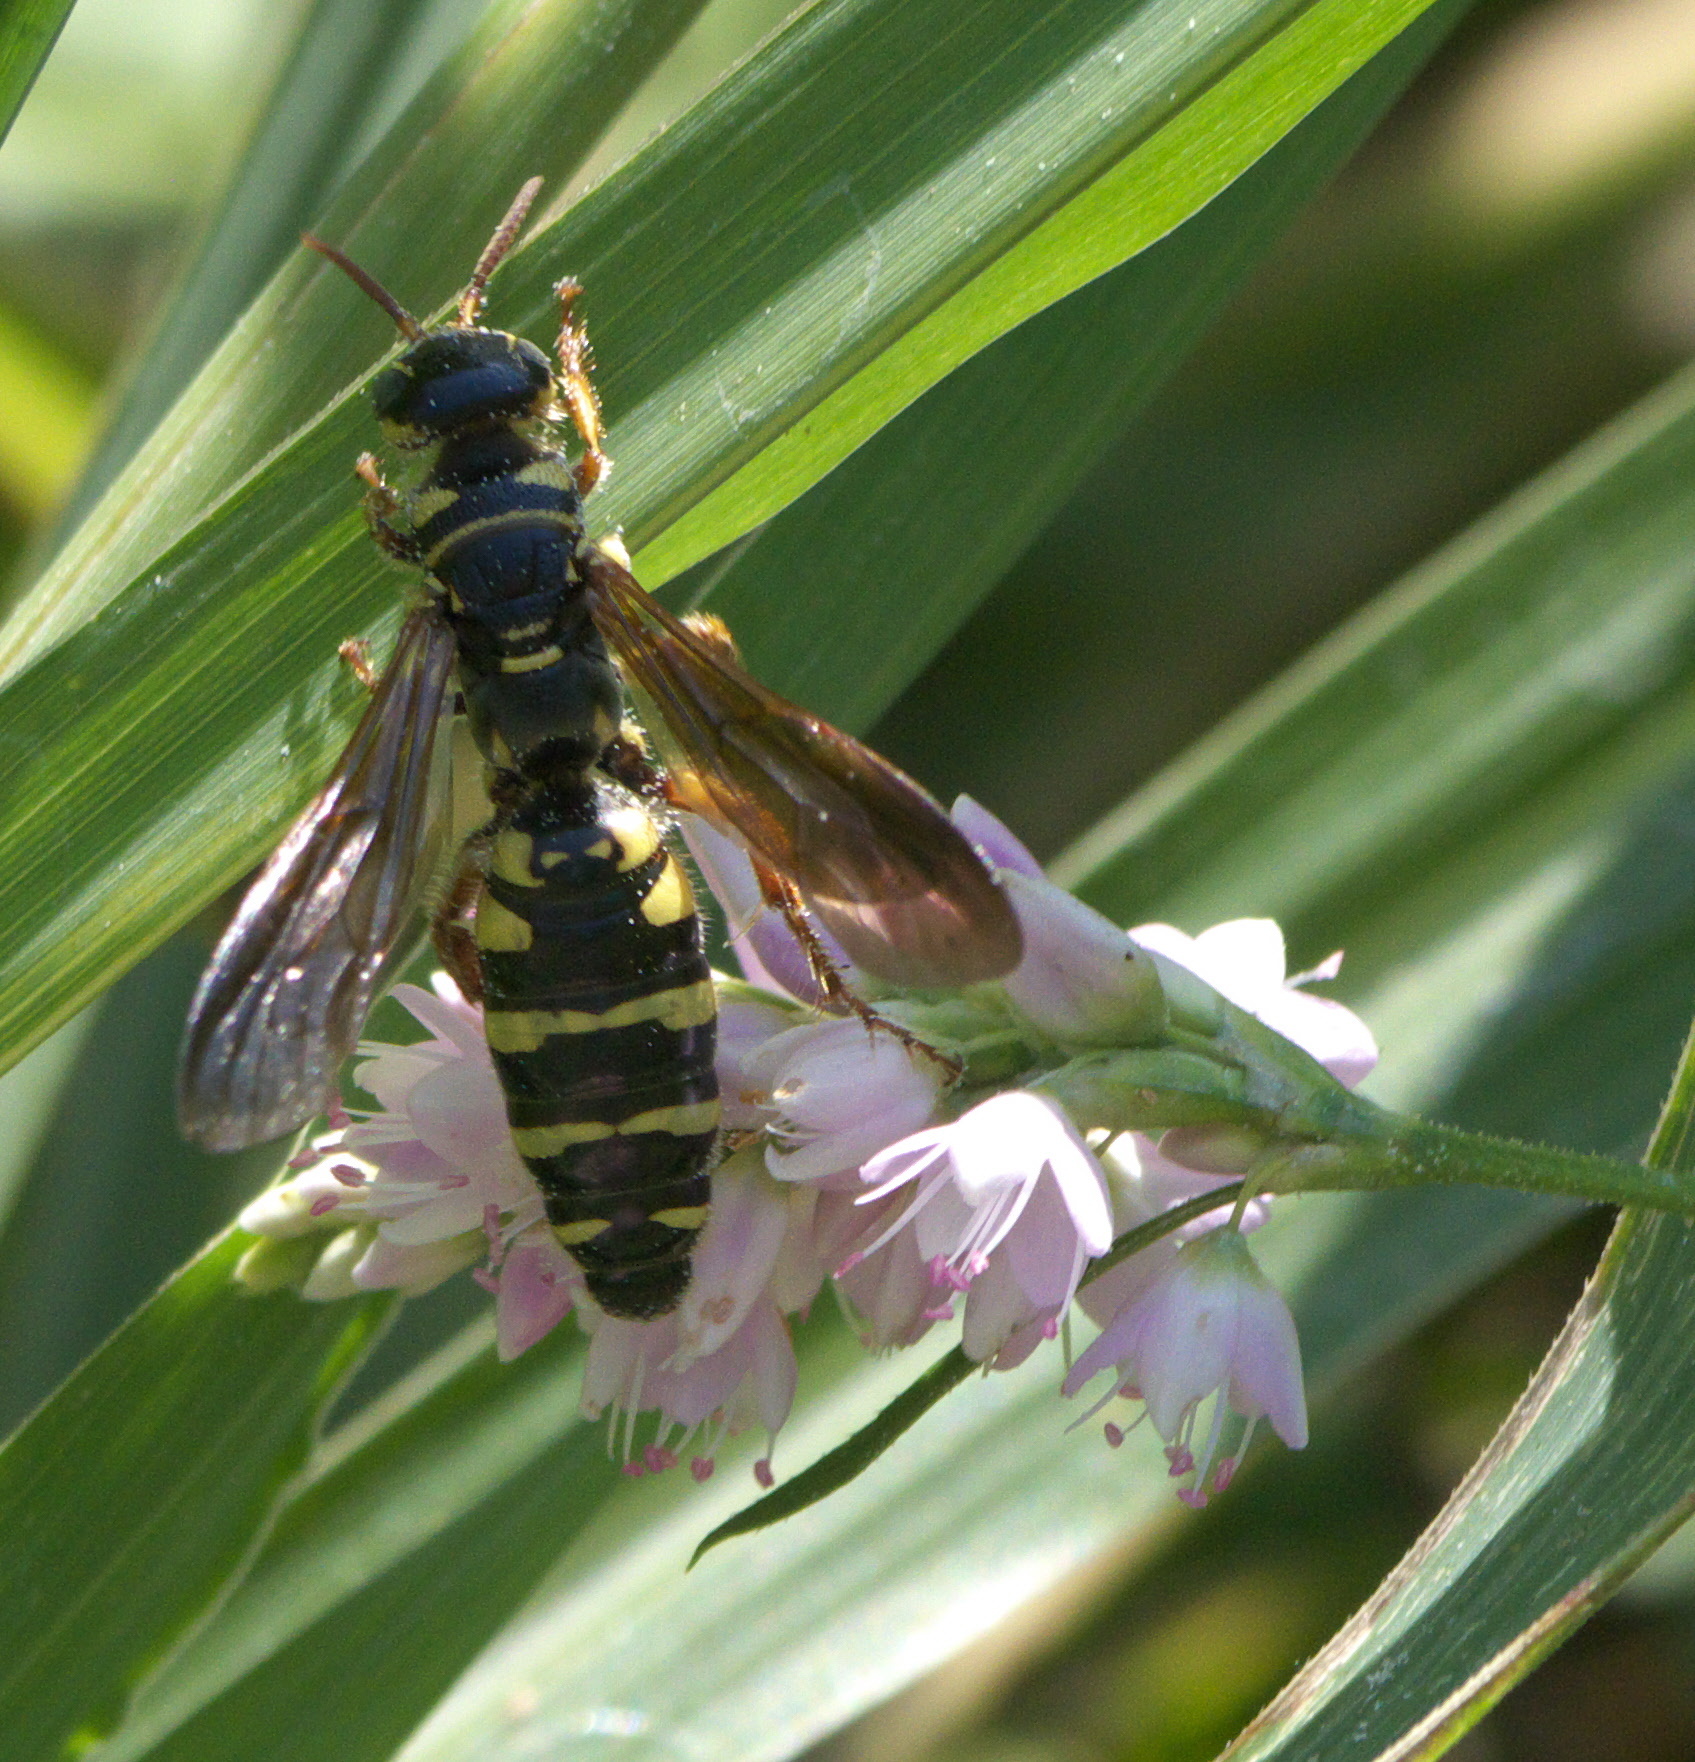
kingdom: Animalia
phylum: Arthropoda
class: Insecta
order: Hymenoptera
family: Tiphiidae
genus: Myzinum
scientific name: Myzinum quinquecinctum
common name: Five-banded thynnid wasp
